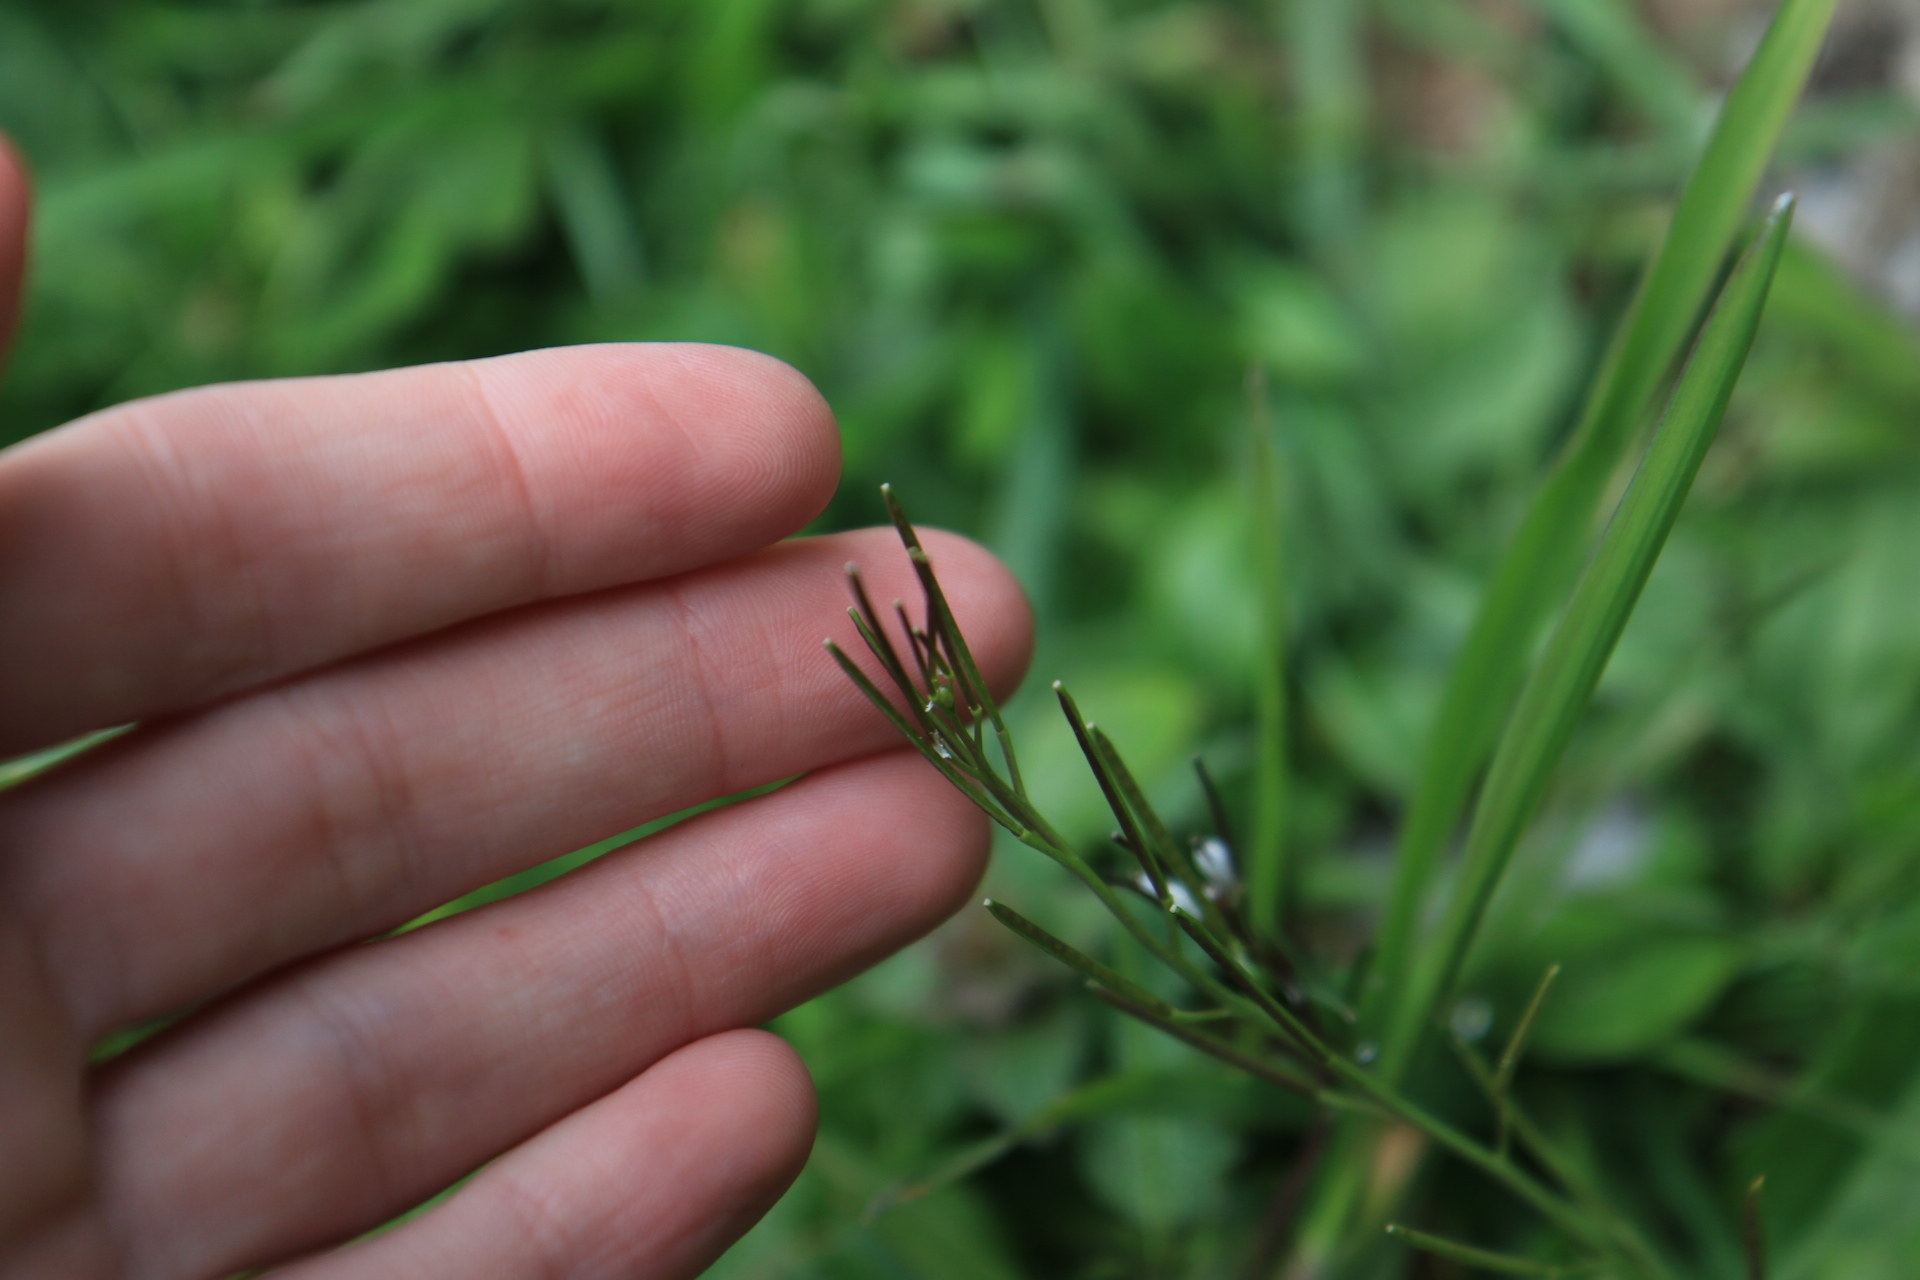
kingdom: Plantae
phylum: Tracheophyta
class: Magnoliopsida
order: Brassicales
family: Brassicaceae
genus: Cardamine
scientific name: Cardamine hirsuta
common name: Hairy bittercress
